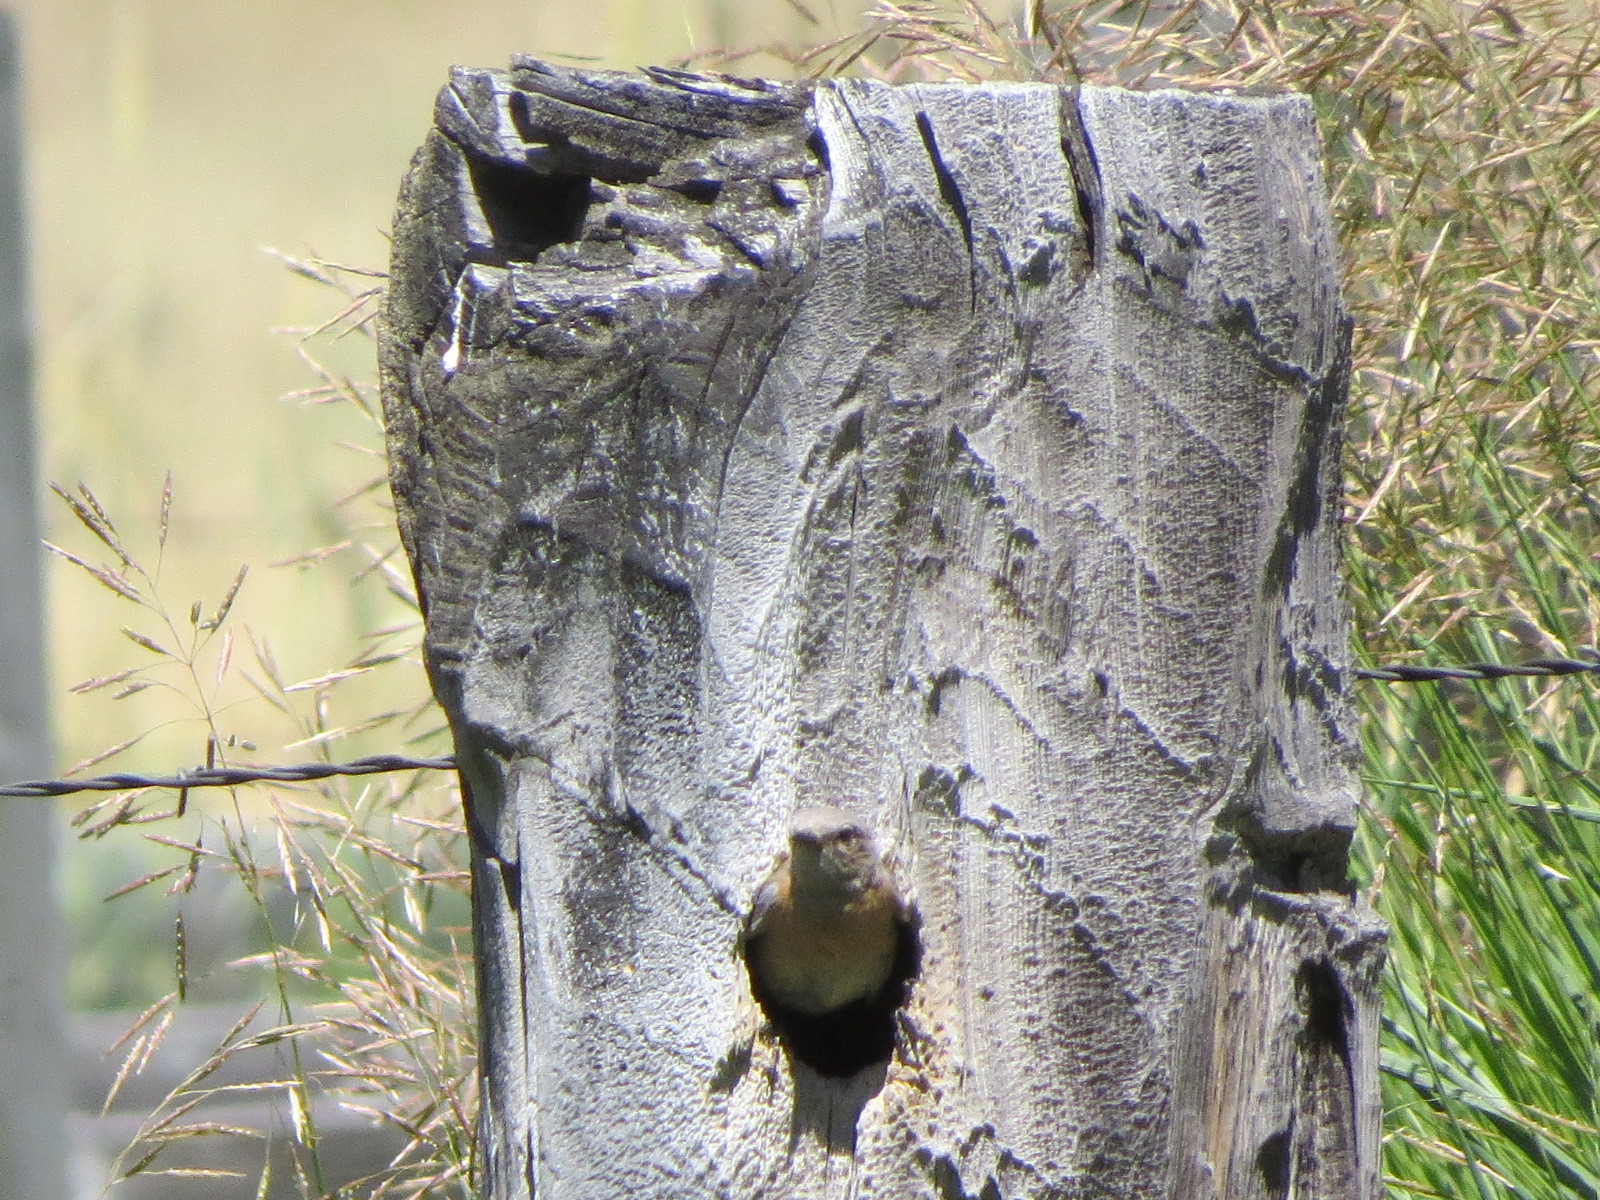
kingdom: Animalia
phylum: Chordata
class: Aves
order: Passeriformes
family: Turdidae
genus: Sialia
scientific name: Sialia mexicana
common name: Western bluebird
